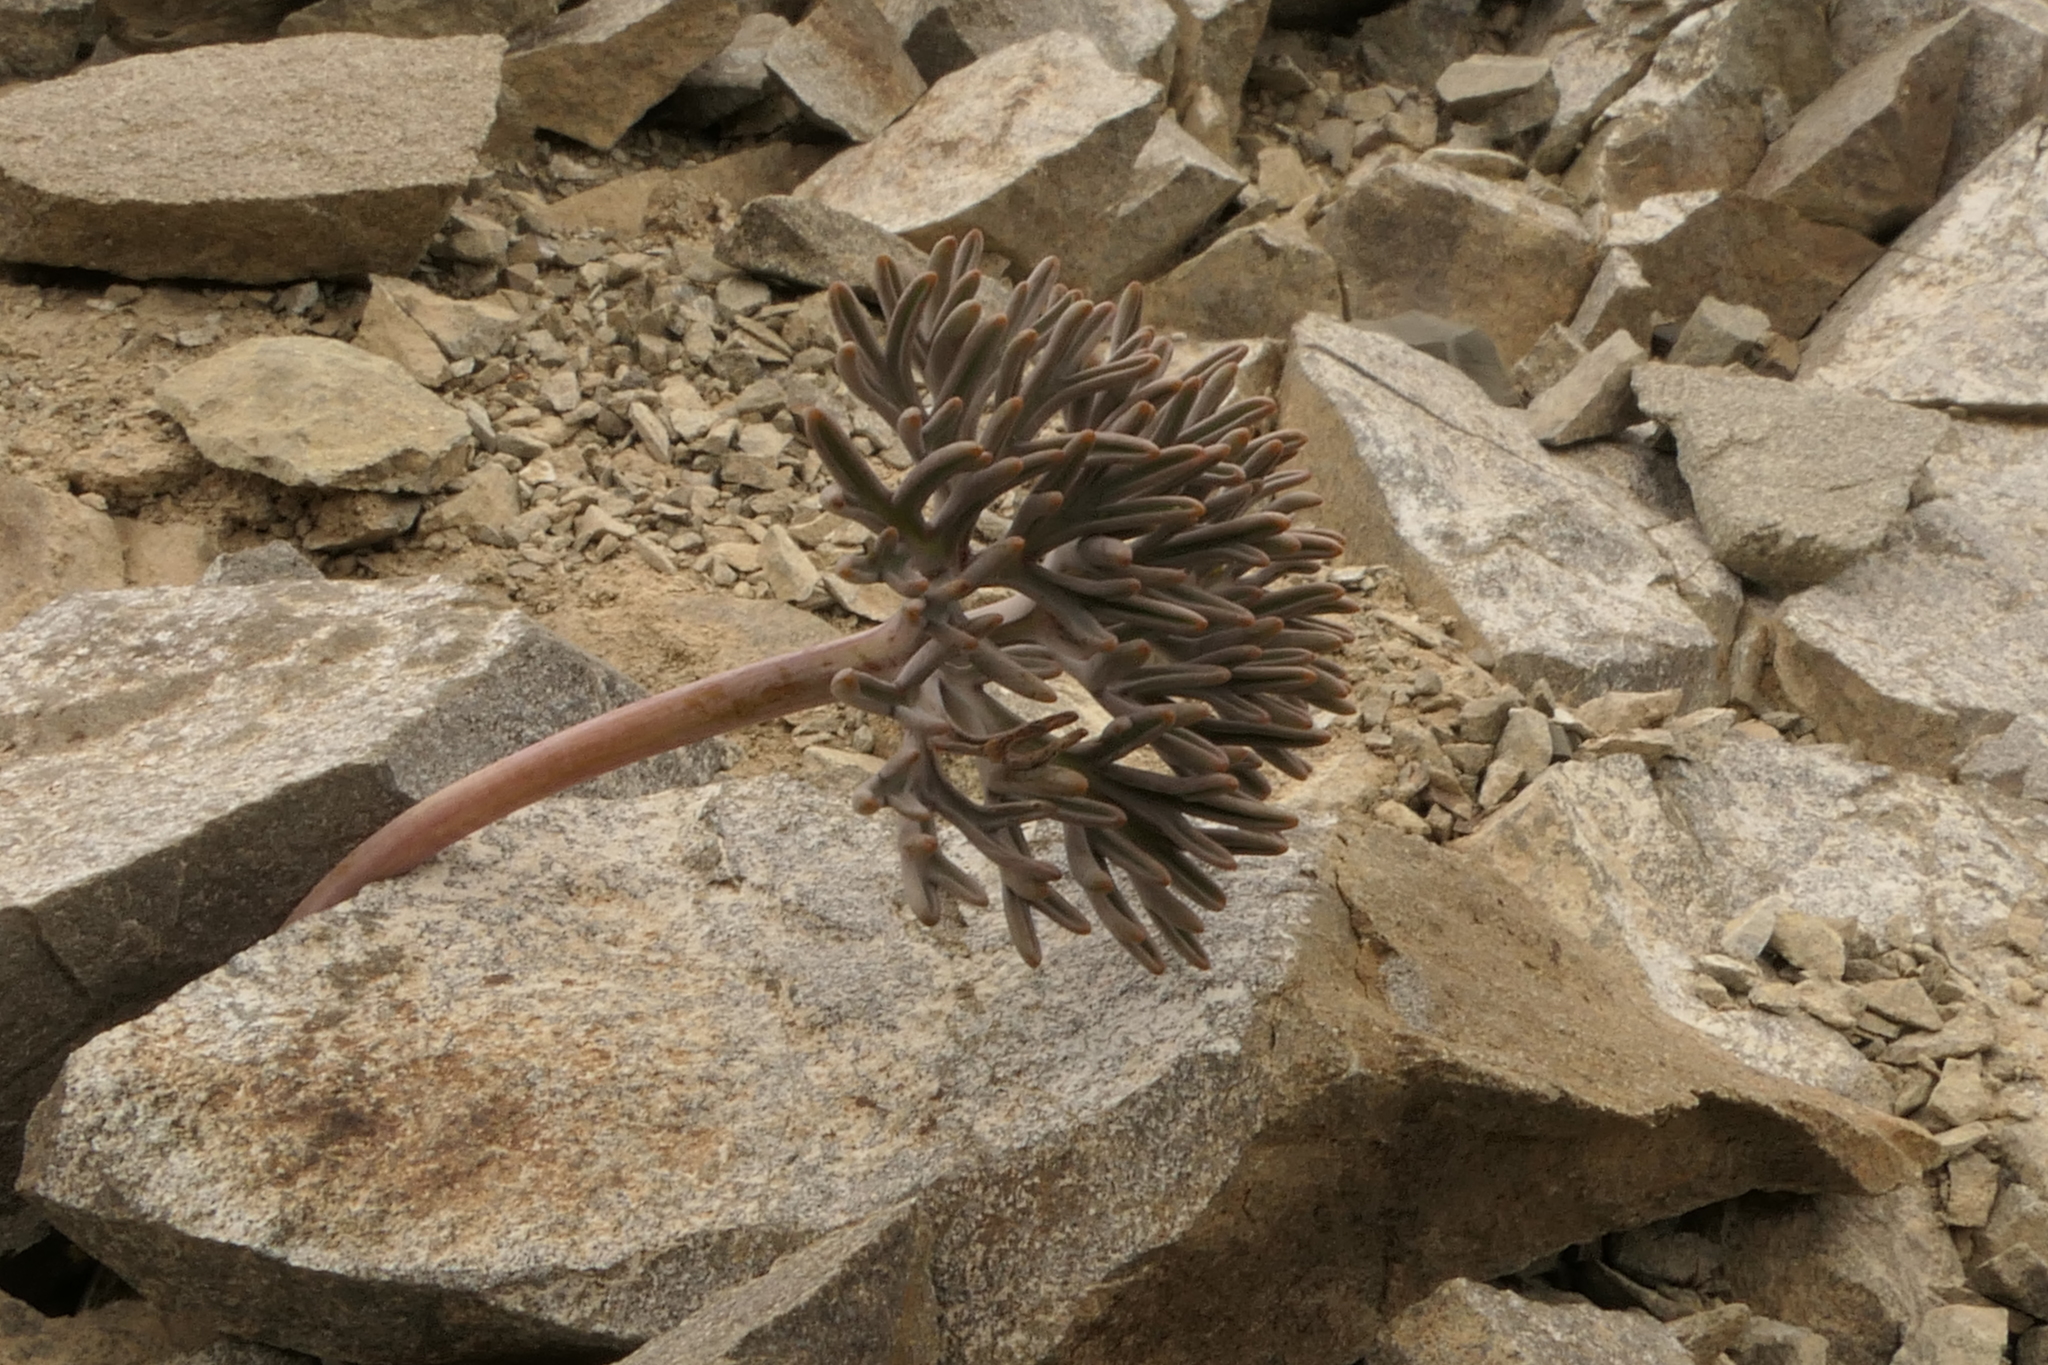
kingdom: Plantae
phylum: Tracheophyta
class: Magnoliopsida
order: Apiales
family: Apiaceae
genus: Lignocarpa
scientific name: Lignocarpa carnosula
